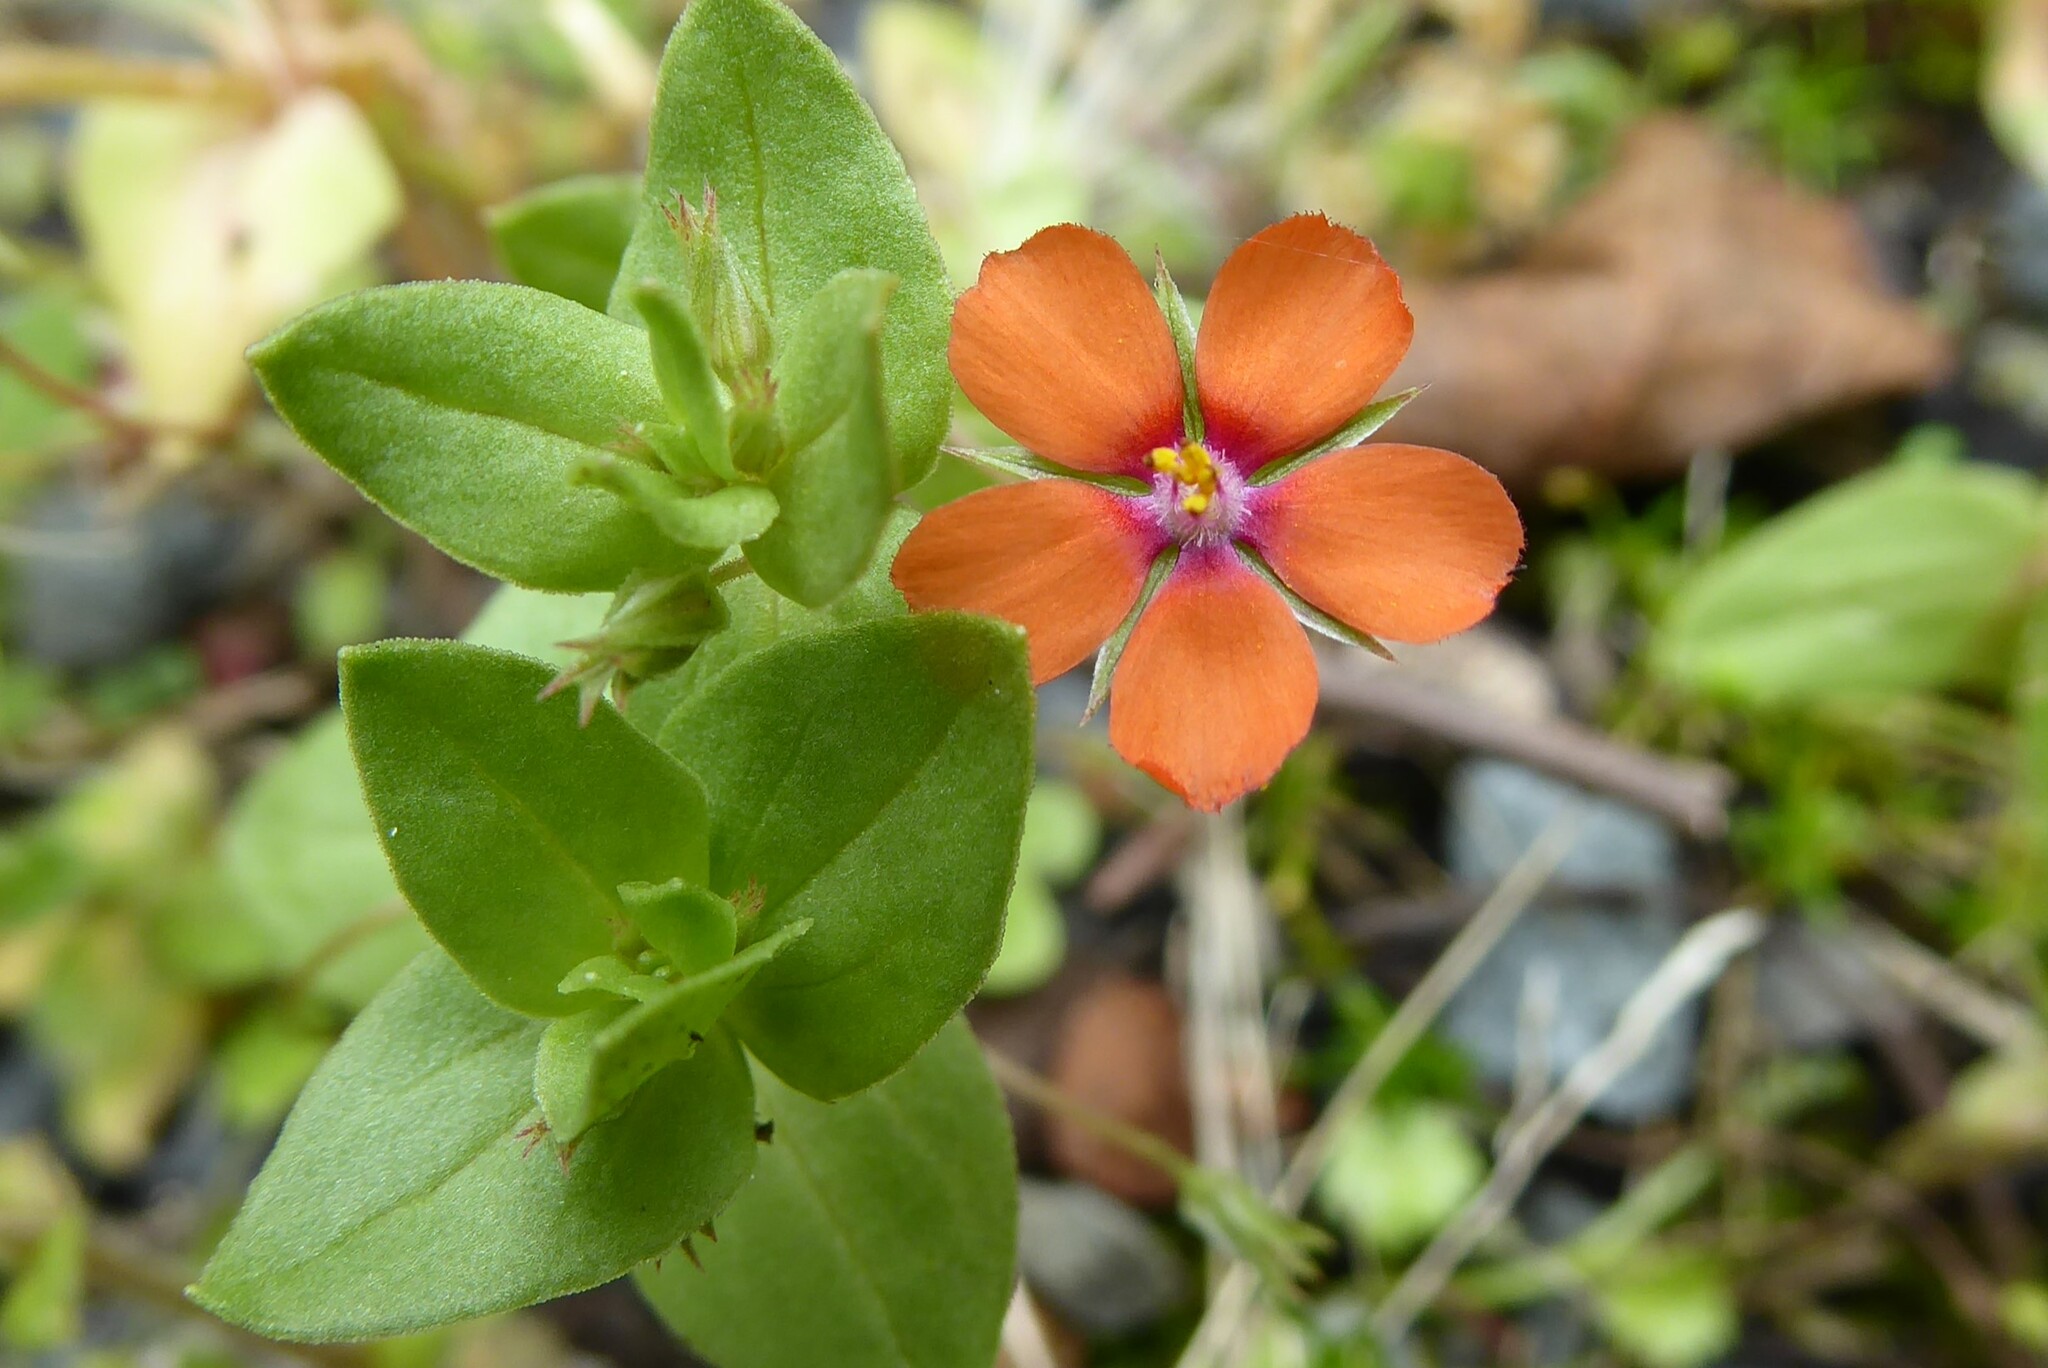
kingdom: Plantae
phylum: Tracheophyta
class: Magnoliopsida
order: Ericales
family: Primulaceae
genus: Lysimachia
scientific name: Lysimachia arvensis
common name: Scarlet pimpernel
